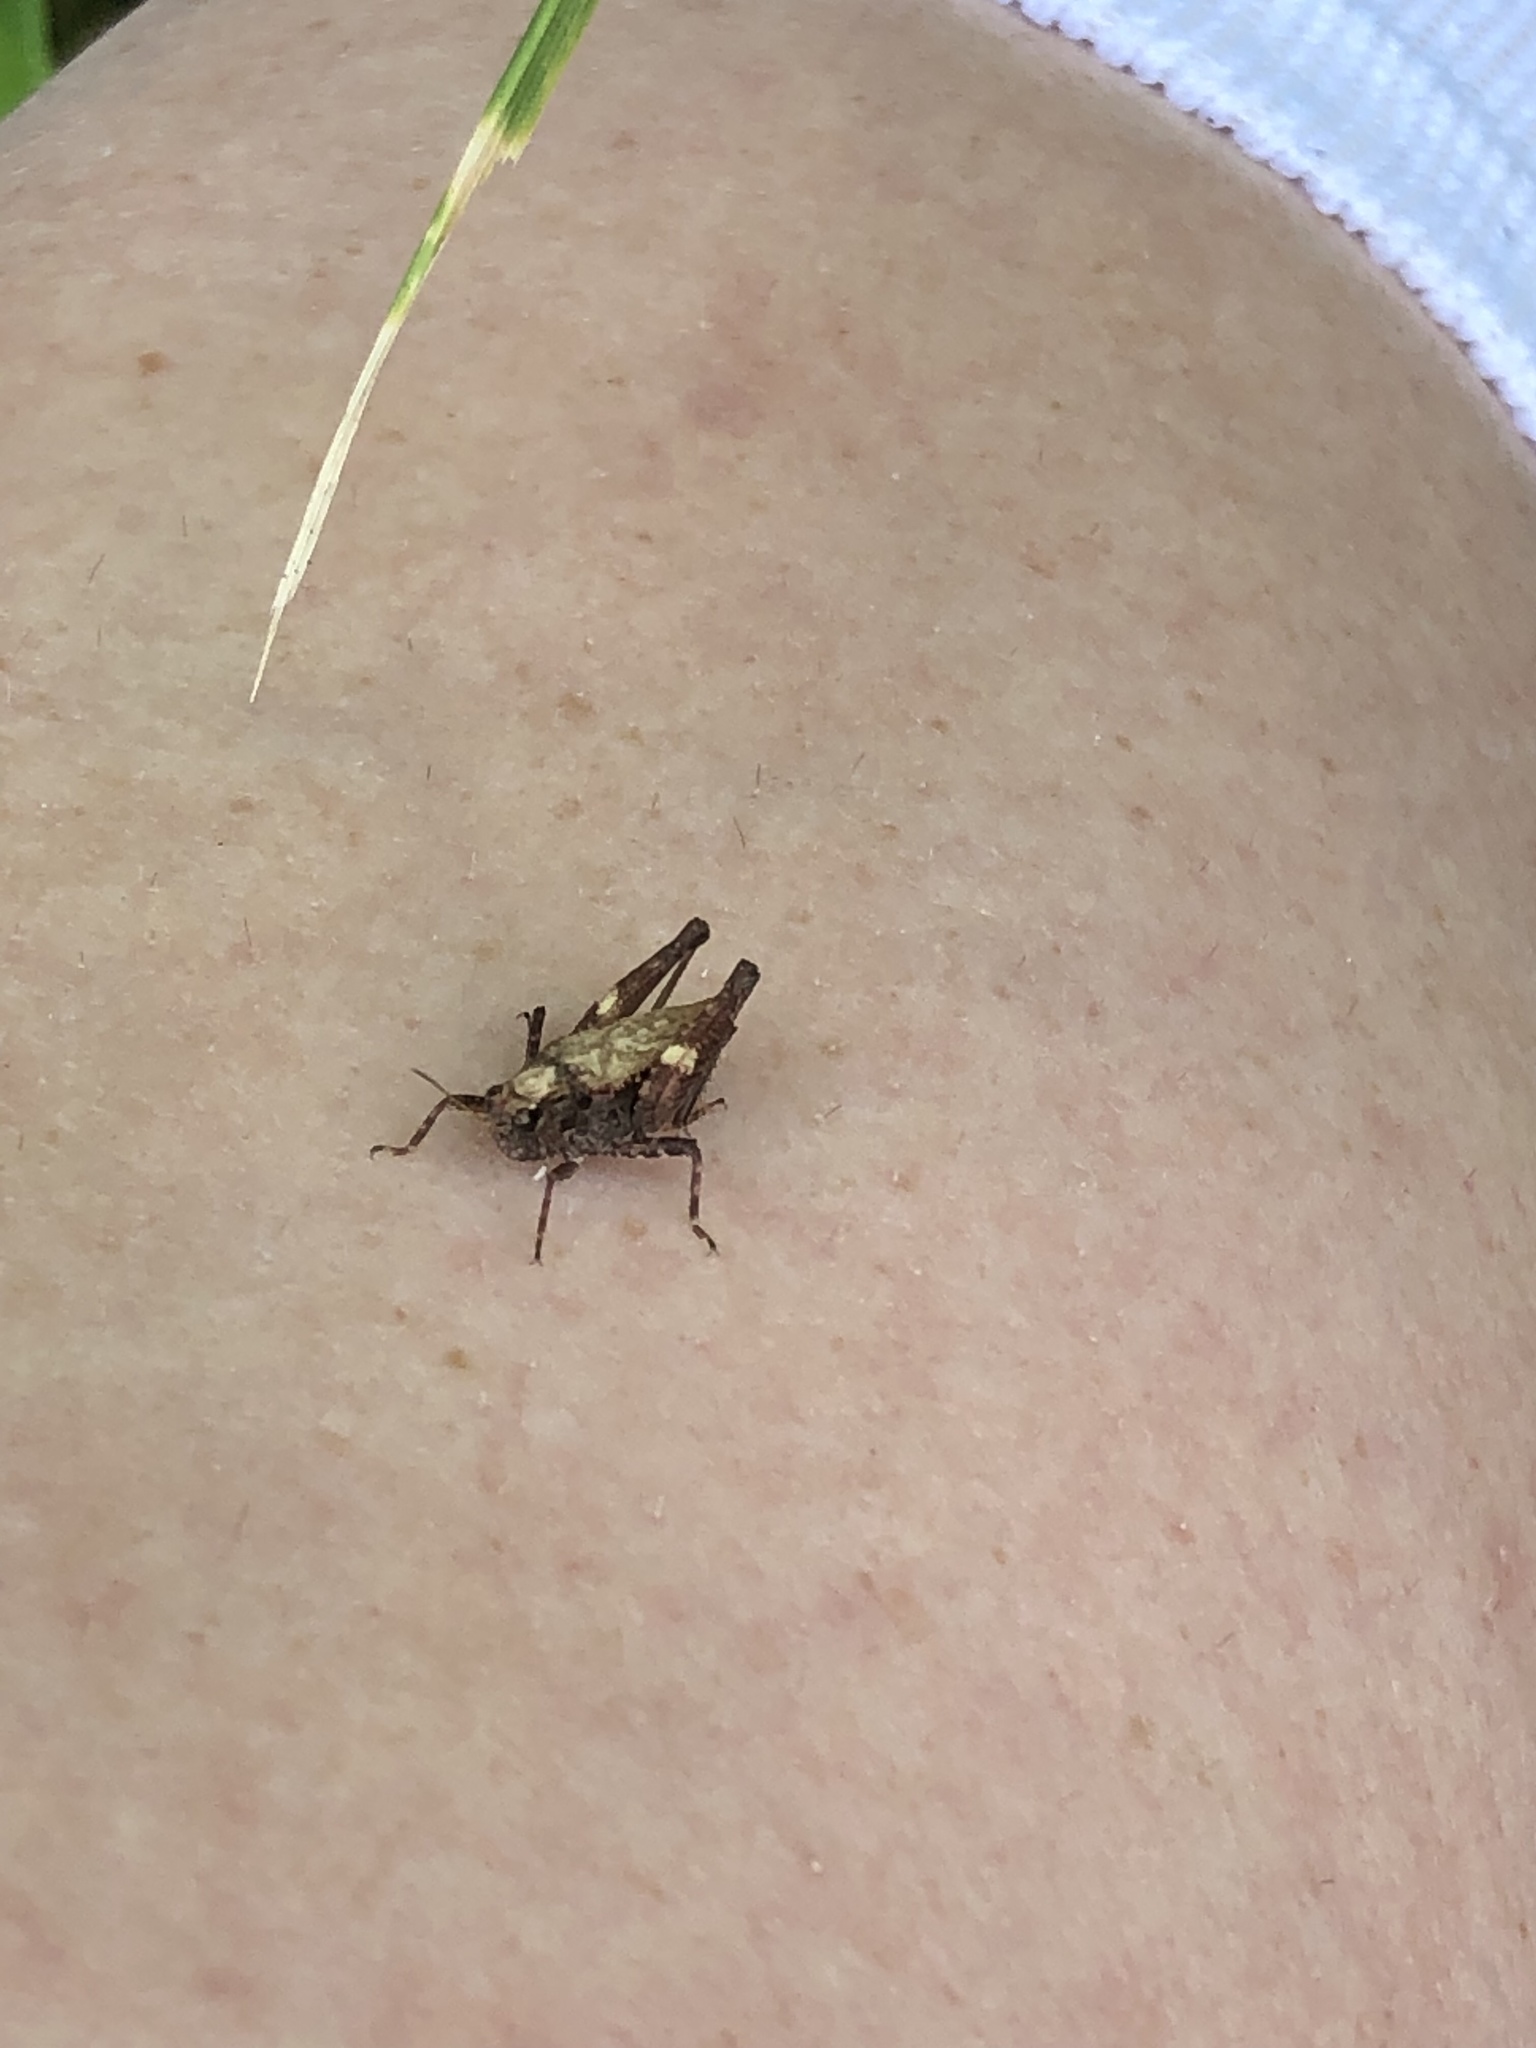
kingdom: Animalia
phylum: Arthropoda
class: Insecta
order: Orthoptera
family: Tetrigidae
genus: Tettigidea
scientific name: Tettigidea laterale
